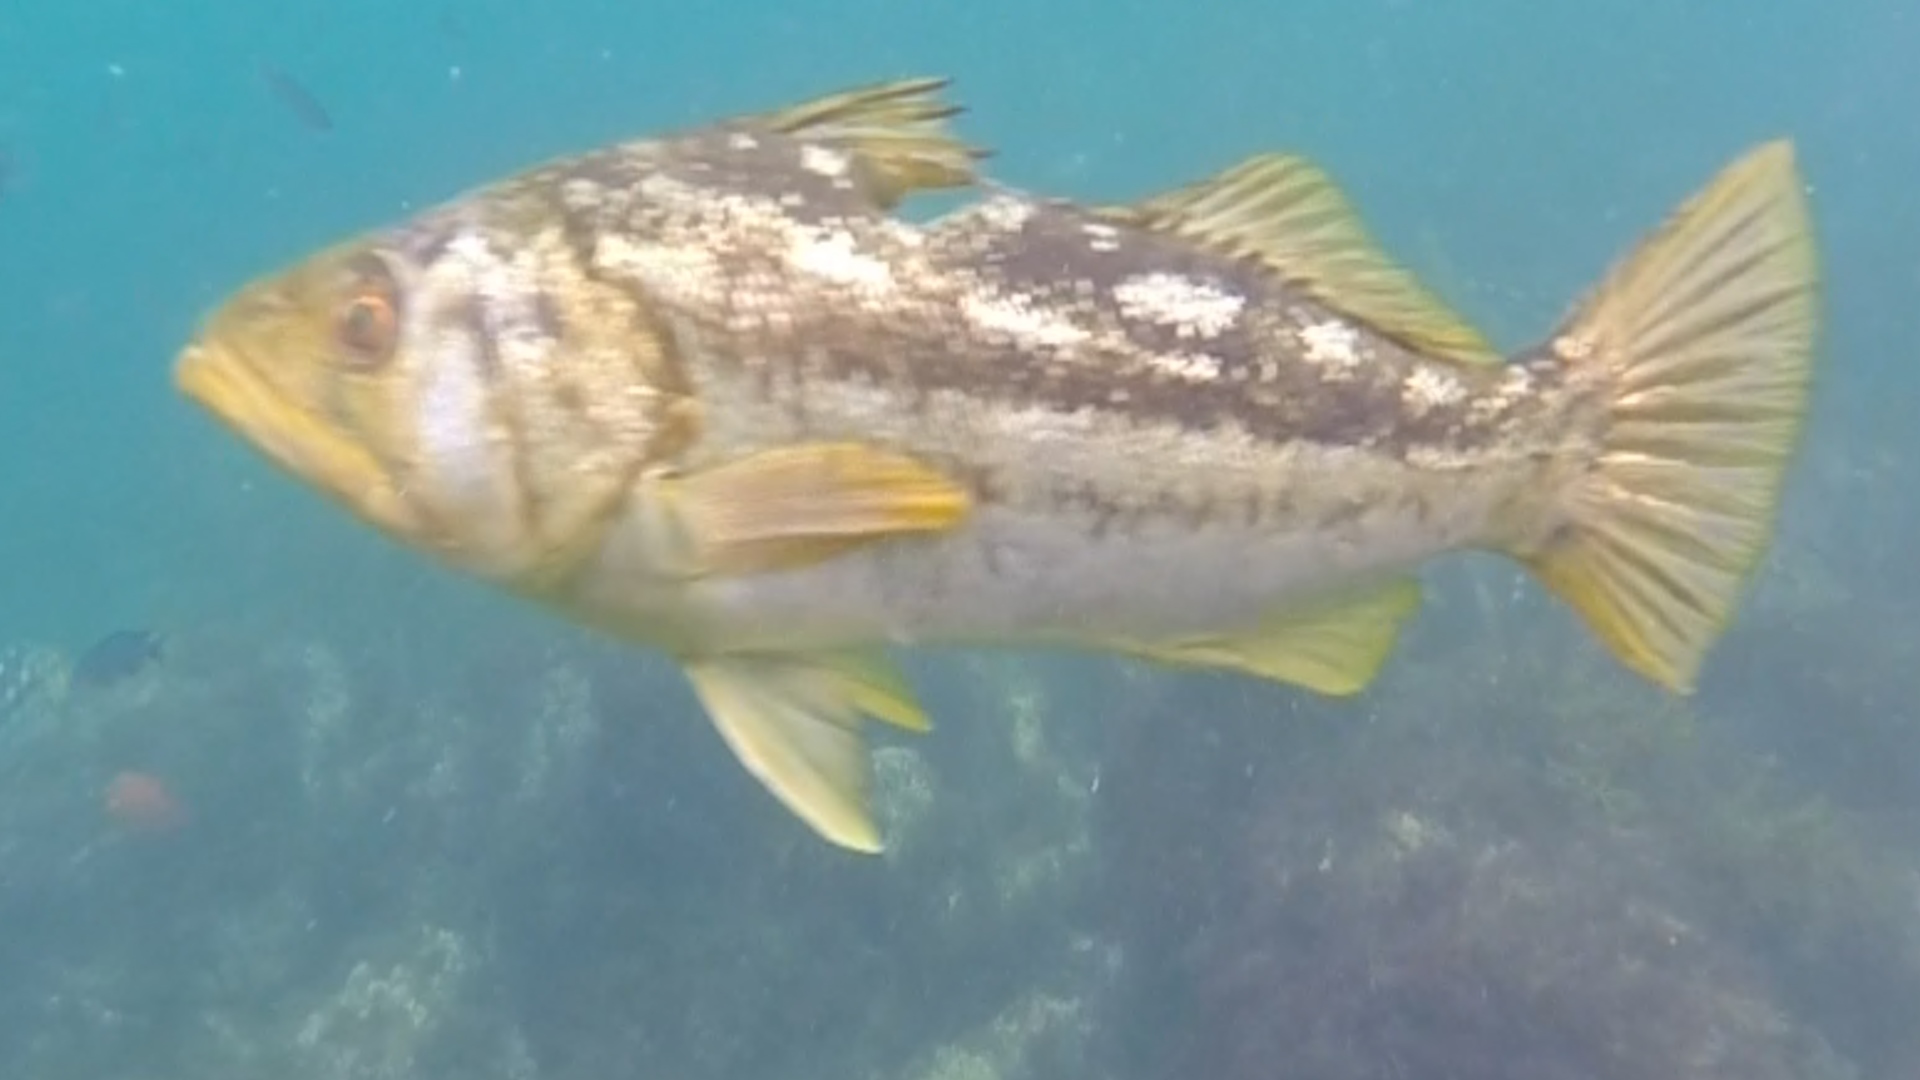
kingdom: Animalia
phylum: Chordata
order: Perciformes
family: Serranidae
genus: Paralabrax
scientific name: Paralabrax clathratus
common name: Kelp bass
